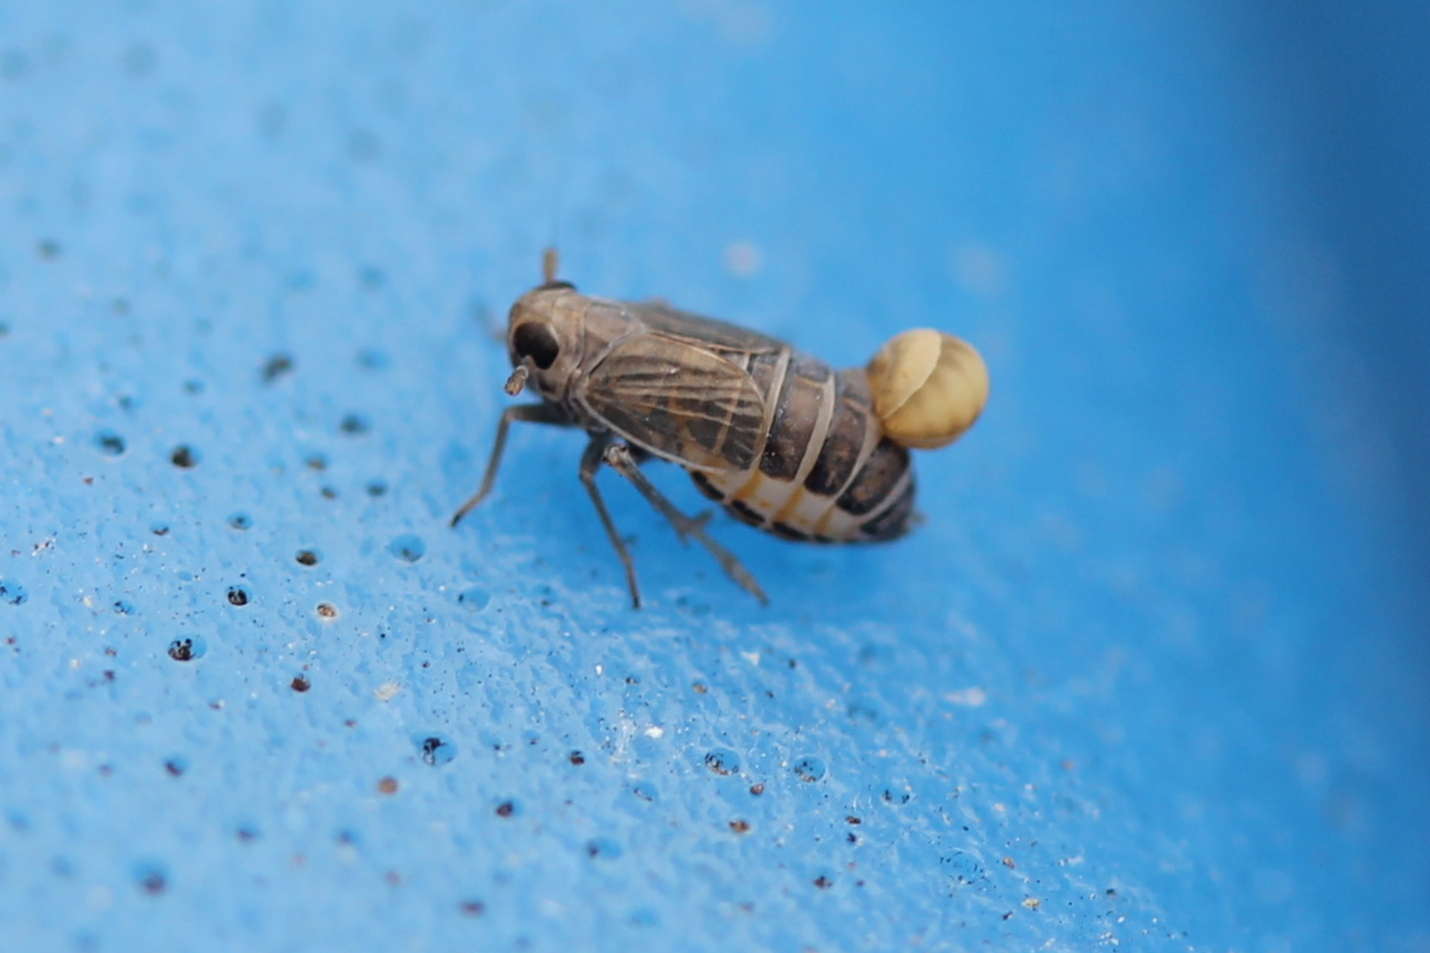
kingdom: Animalia
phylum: Arthropoda
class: Insecta
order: Hemiptera
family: Delphacidae
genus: Kosswigianella
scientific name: Kosswigianella lutulenta
